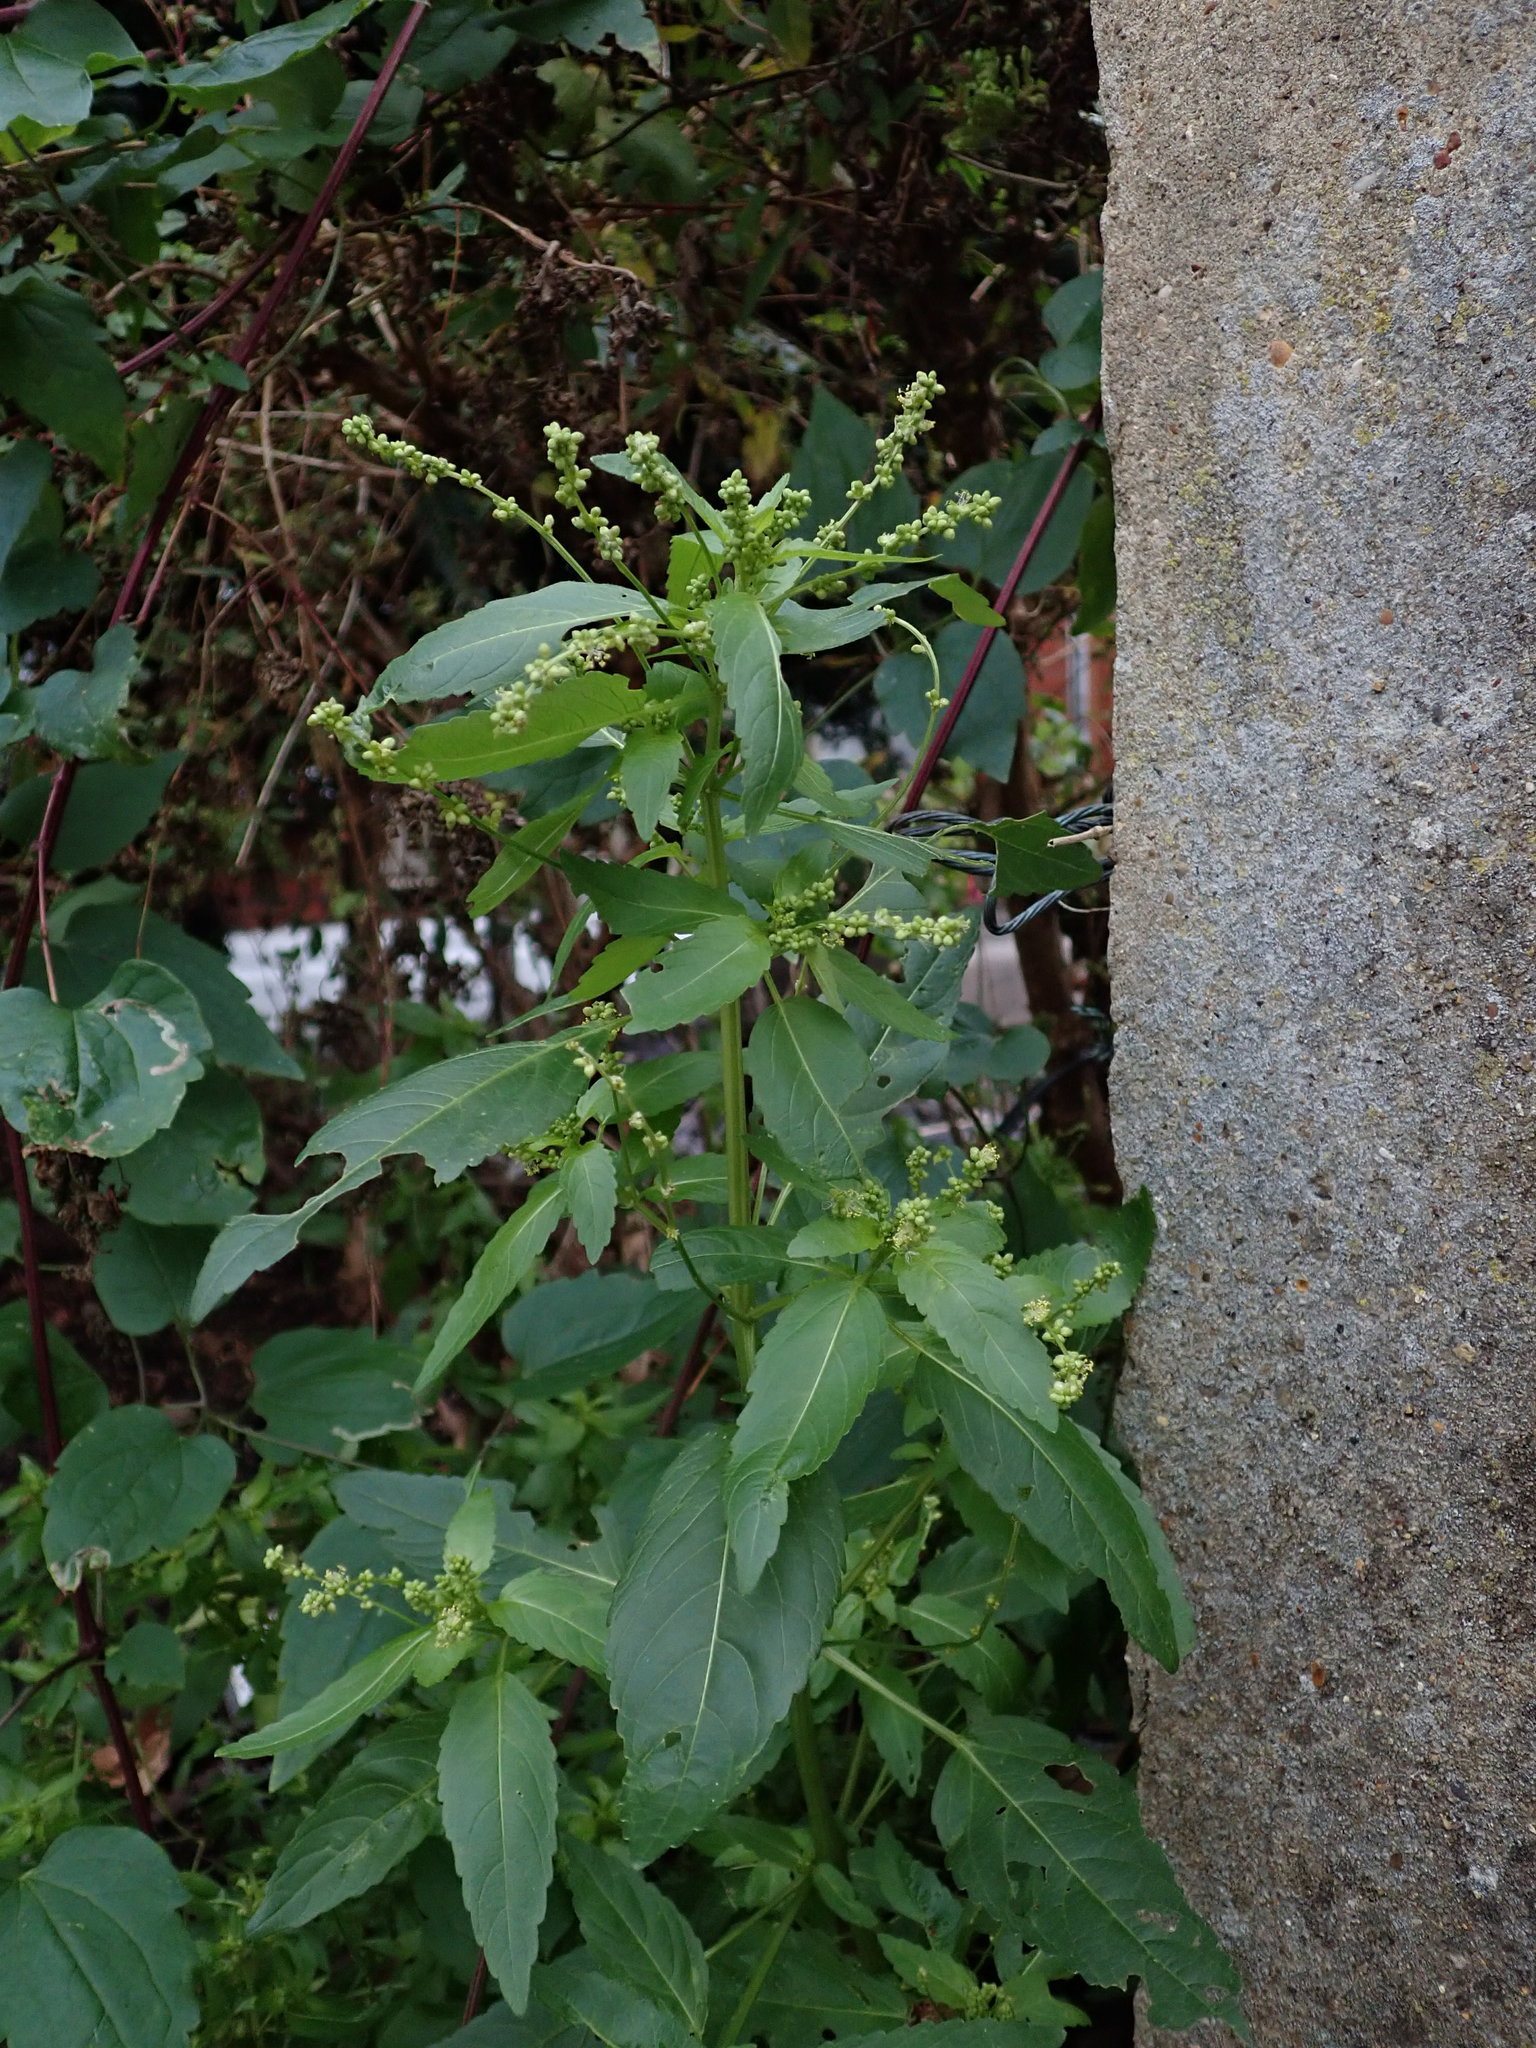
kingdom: Plantae
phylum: Tracheophyta
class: Magnoliopsida
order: Malpighiales
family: Euphorbiaceae
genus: Mercurialis
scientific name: Mercurialis annua
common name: Annual mercury
